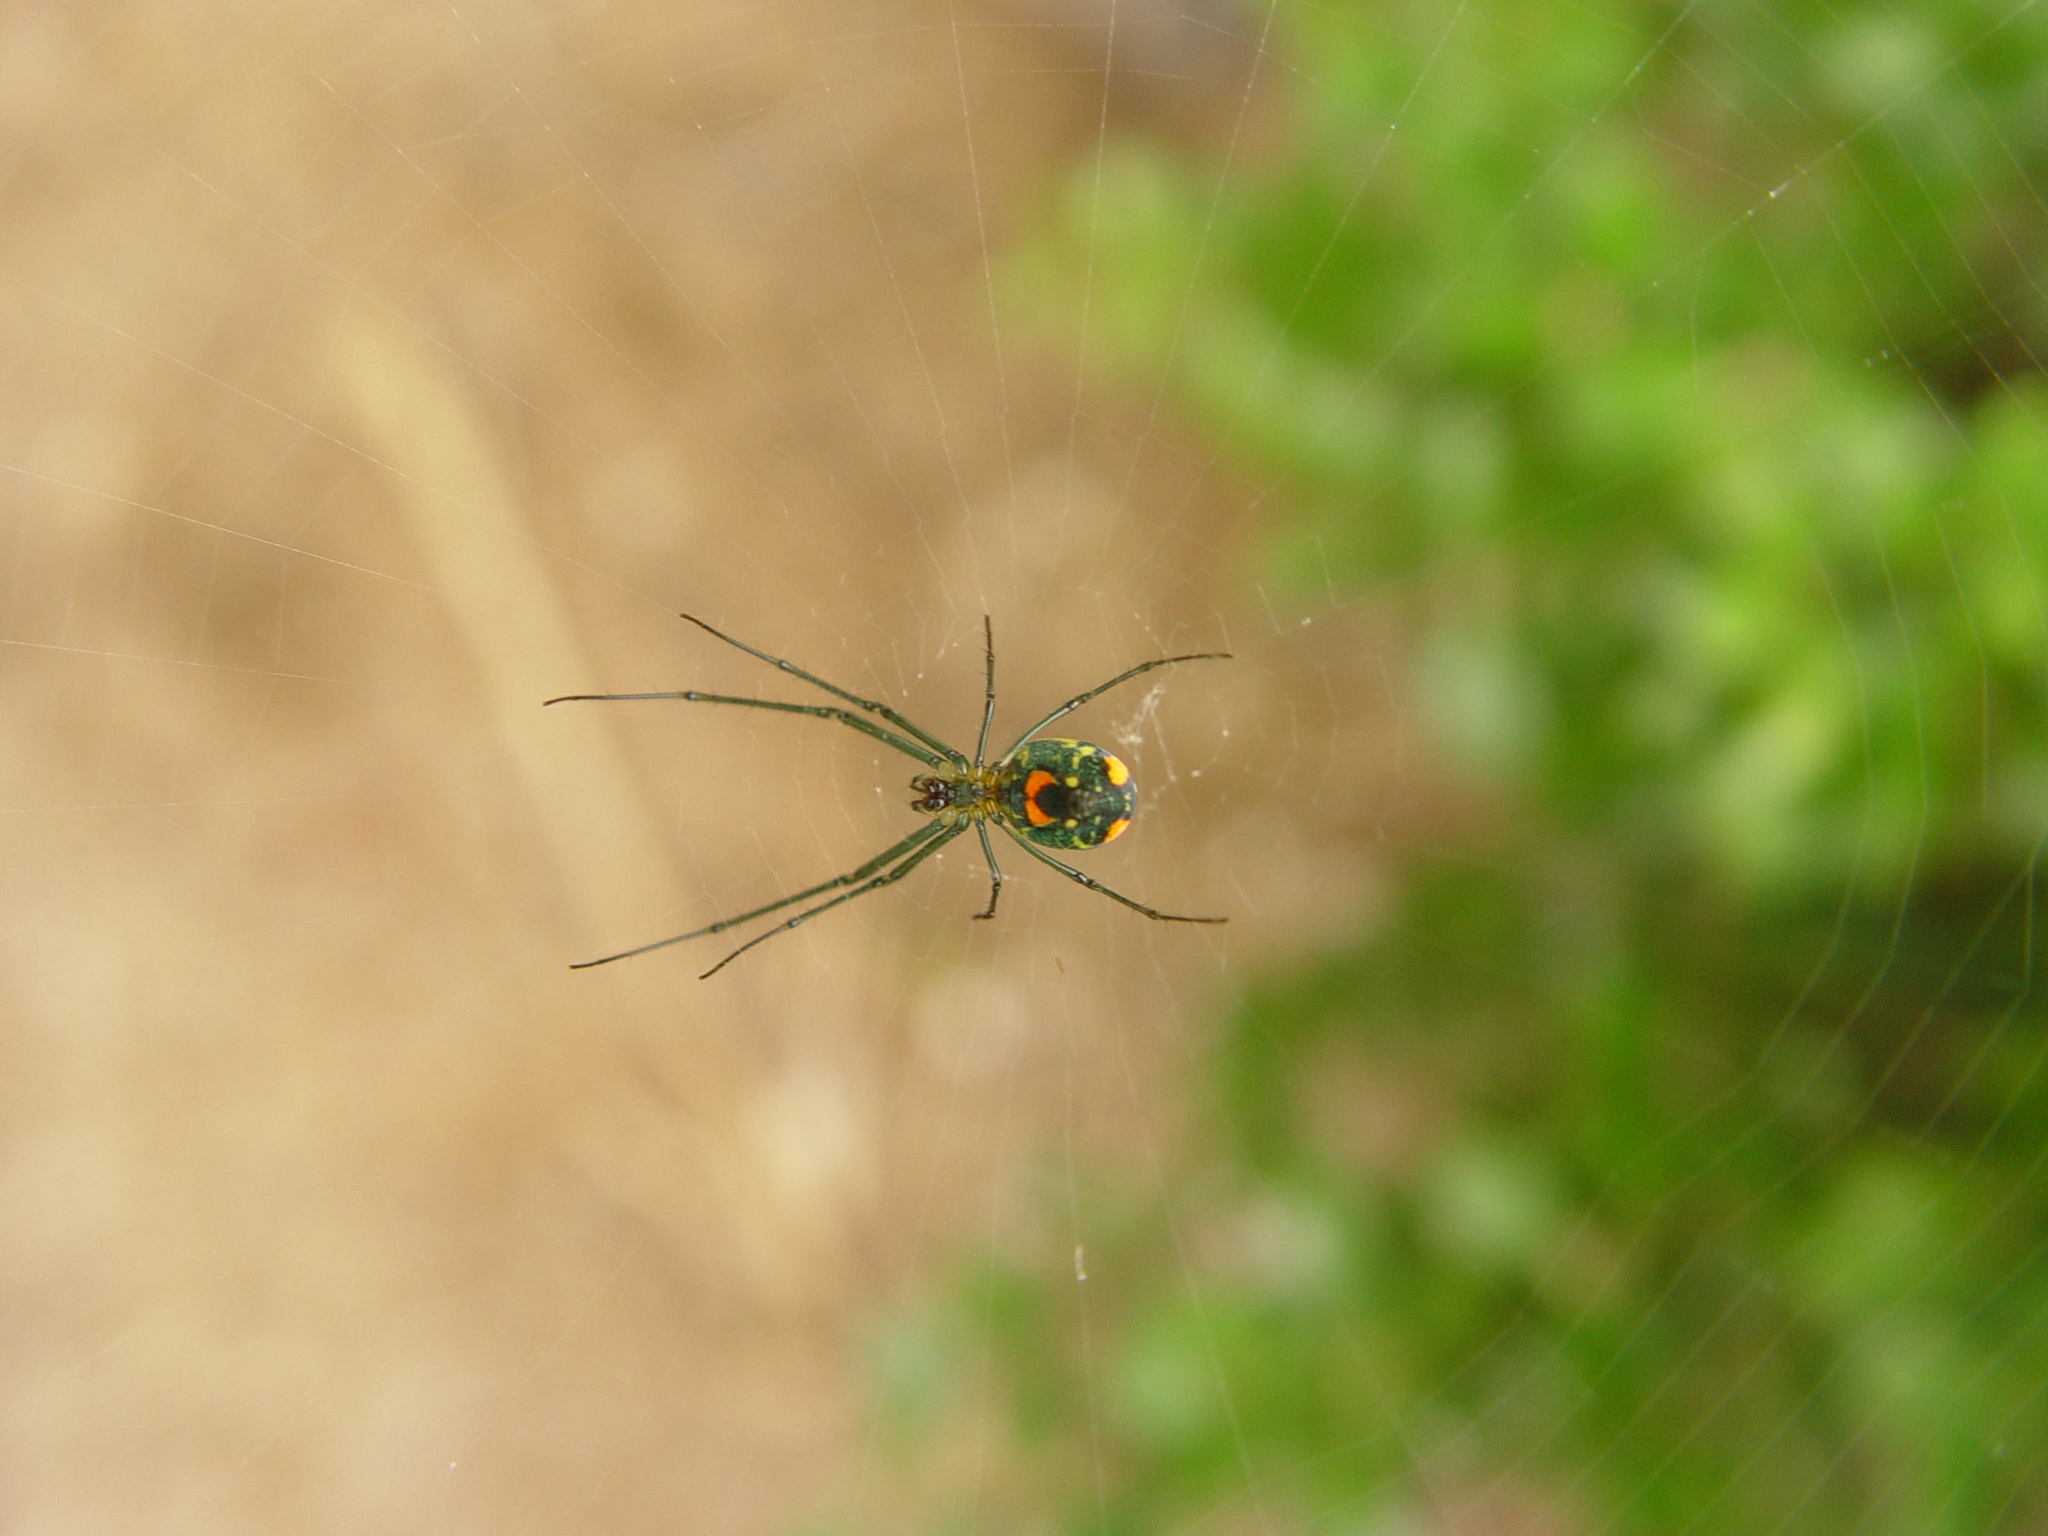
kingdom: Animalia
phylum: Arthropoda
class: Arachnida
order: Araneae
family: Tetragnathidae
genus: Leucauge
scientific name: Leucauge argyrobapta
